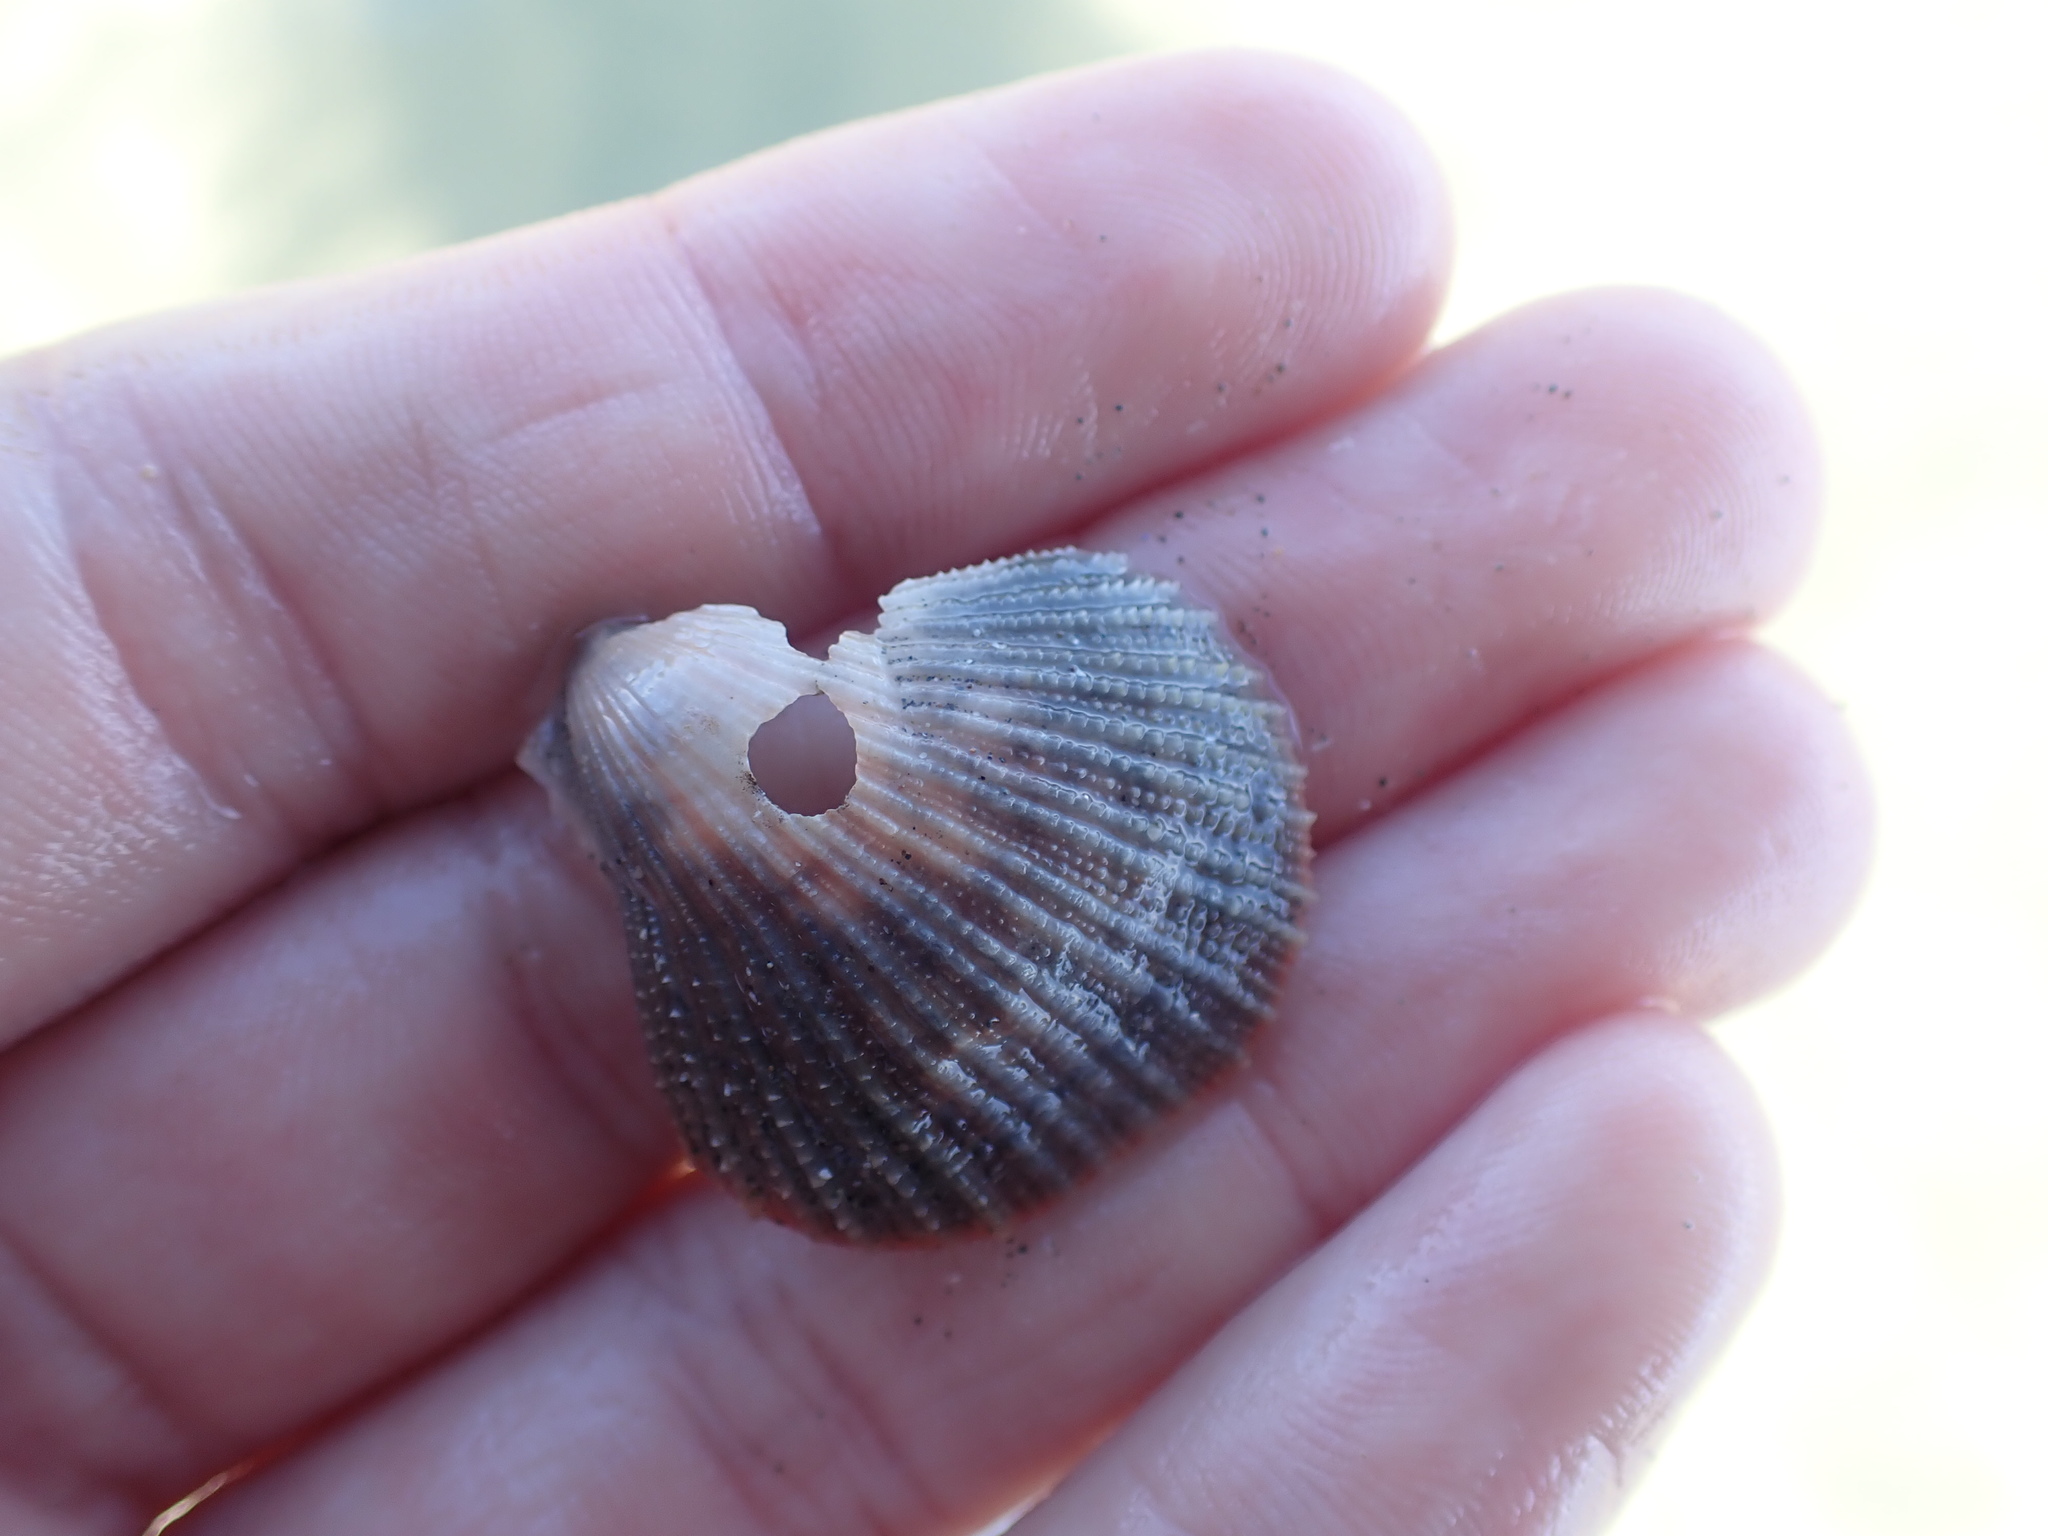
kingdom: Animalia
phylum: Mollusca
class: Bivalvia
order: Pectinida
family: Pectinidae
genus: Talochlamys
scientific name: Talochlamys zelandiae
